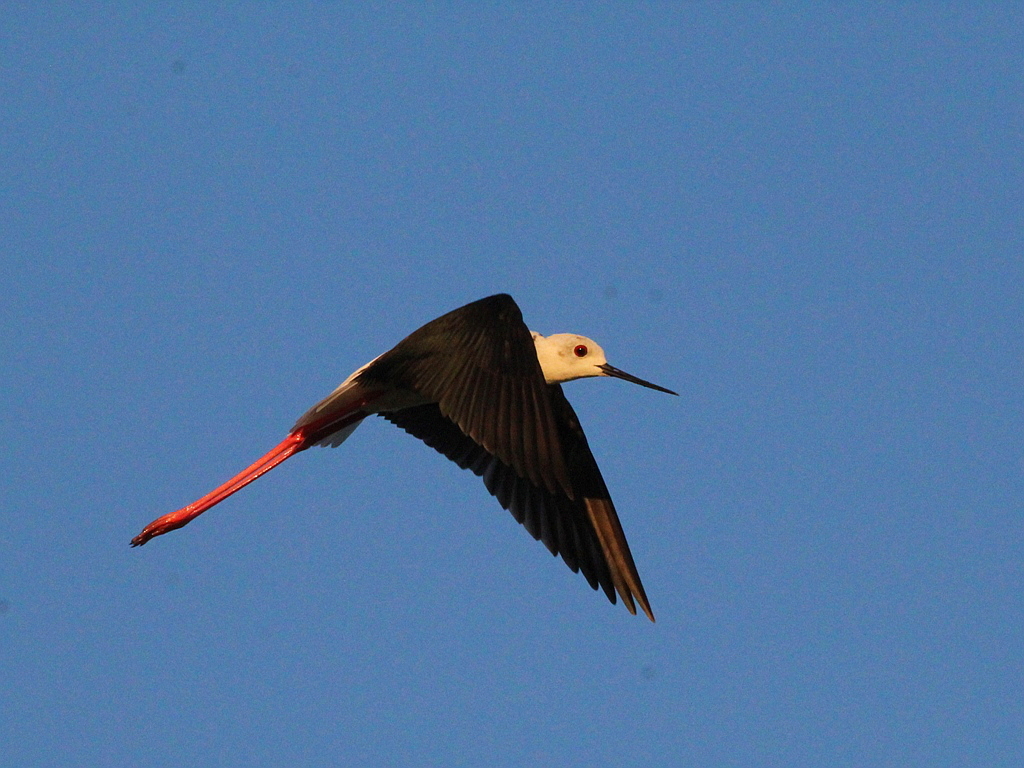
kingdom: Animalia
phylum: Chordata
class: Aves
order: Charadriiformes
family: Recurvirostridae
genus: Himantopus
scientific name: Himantopus himantopus
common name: Black-winged stilt
